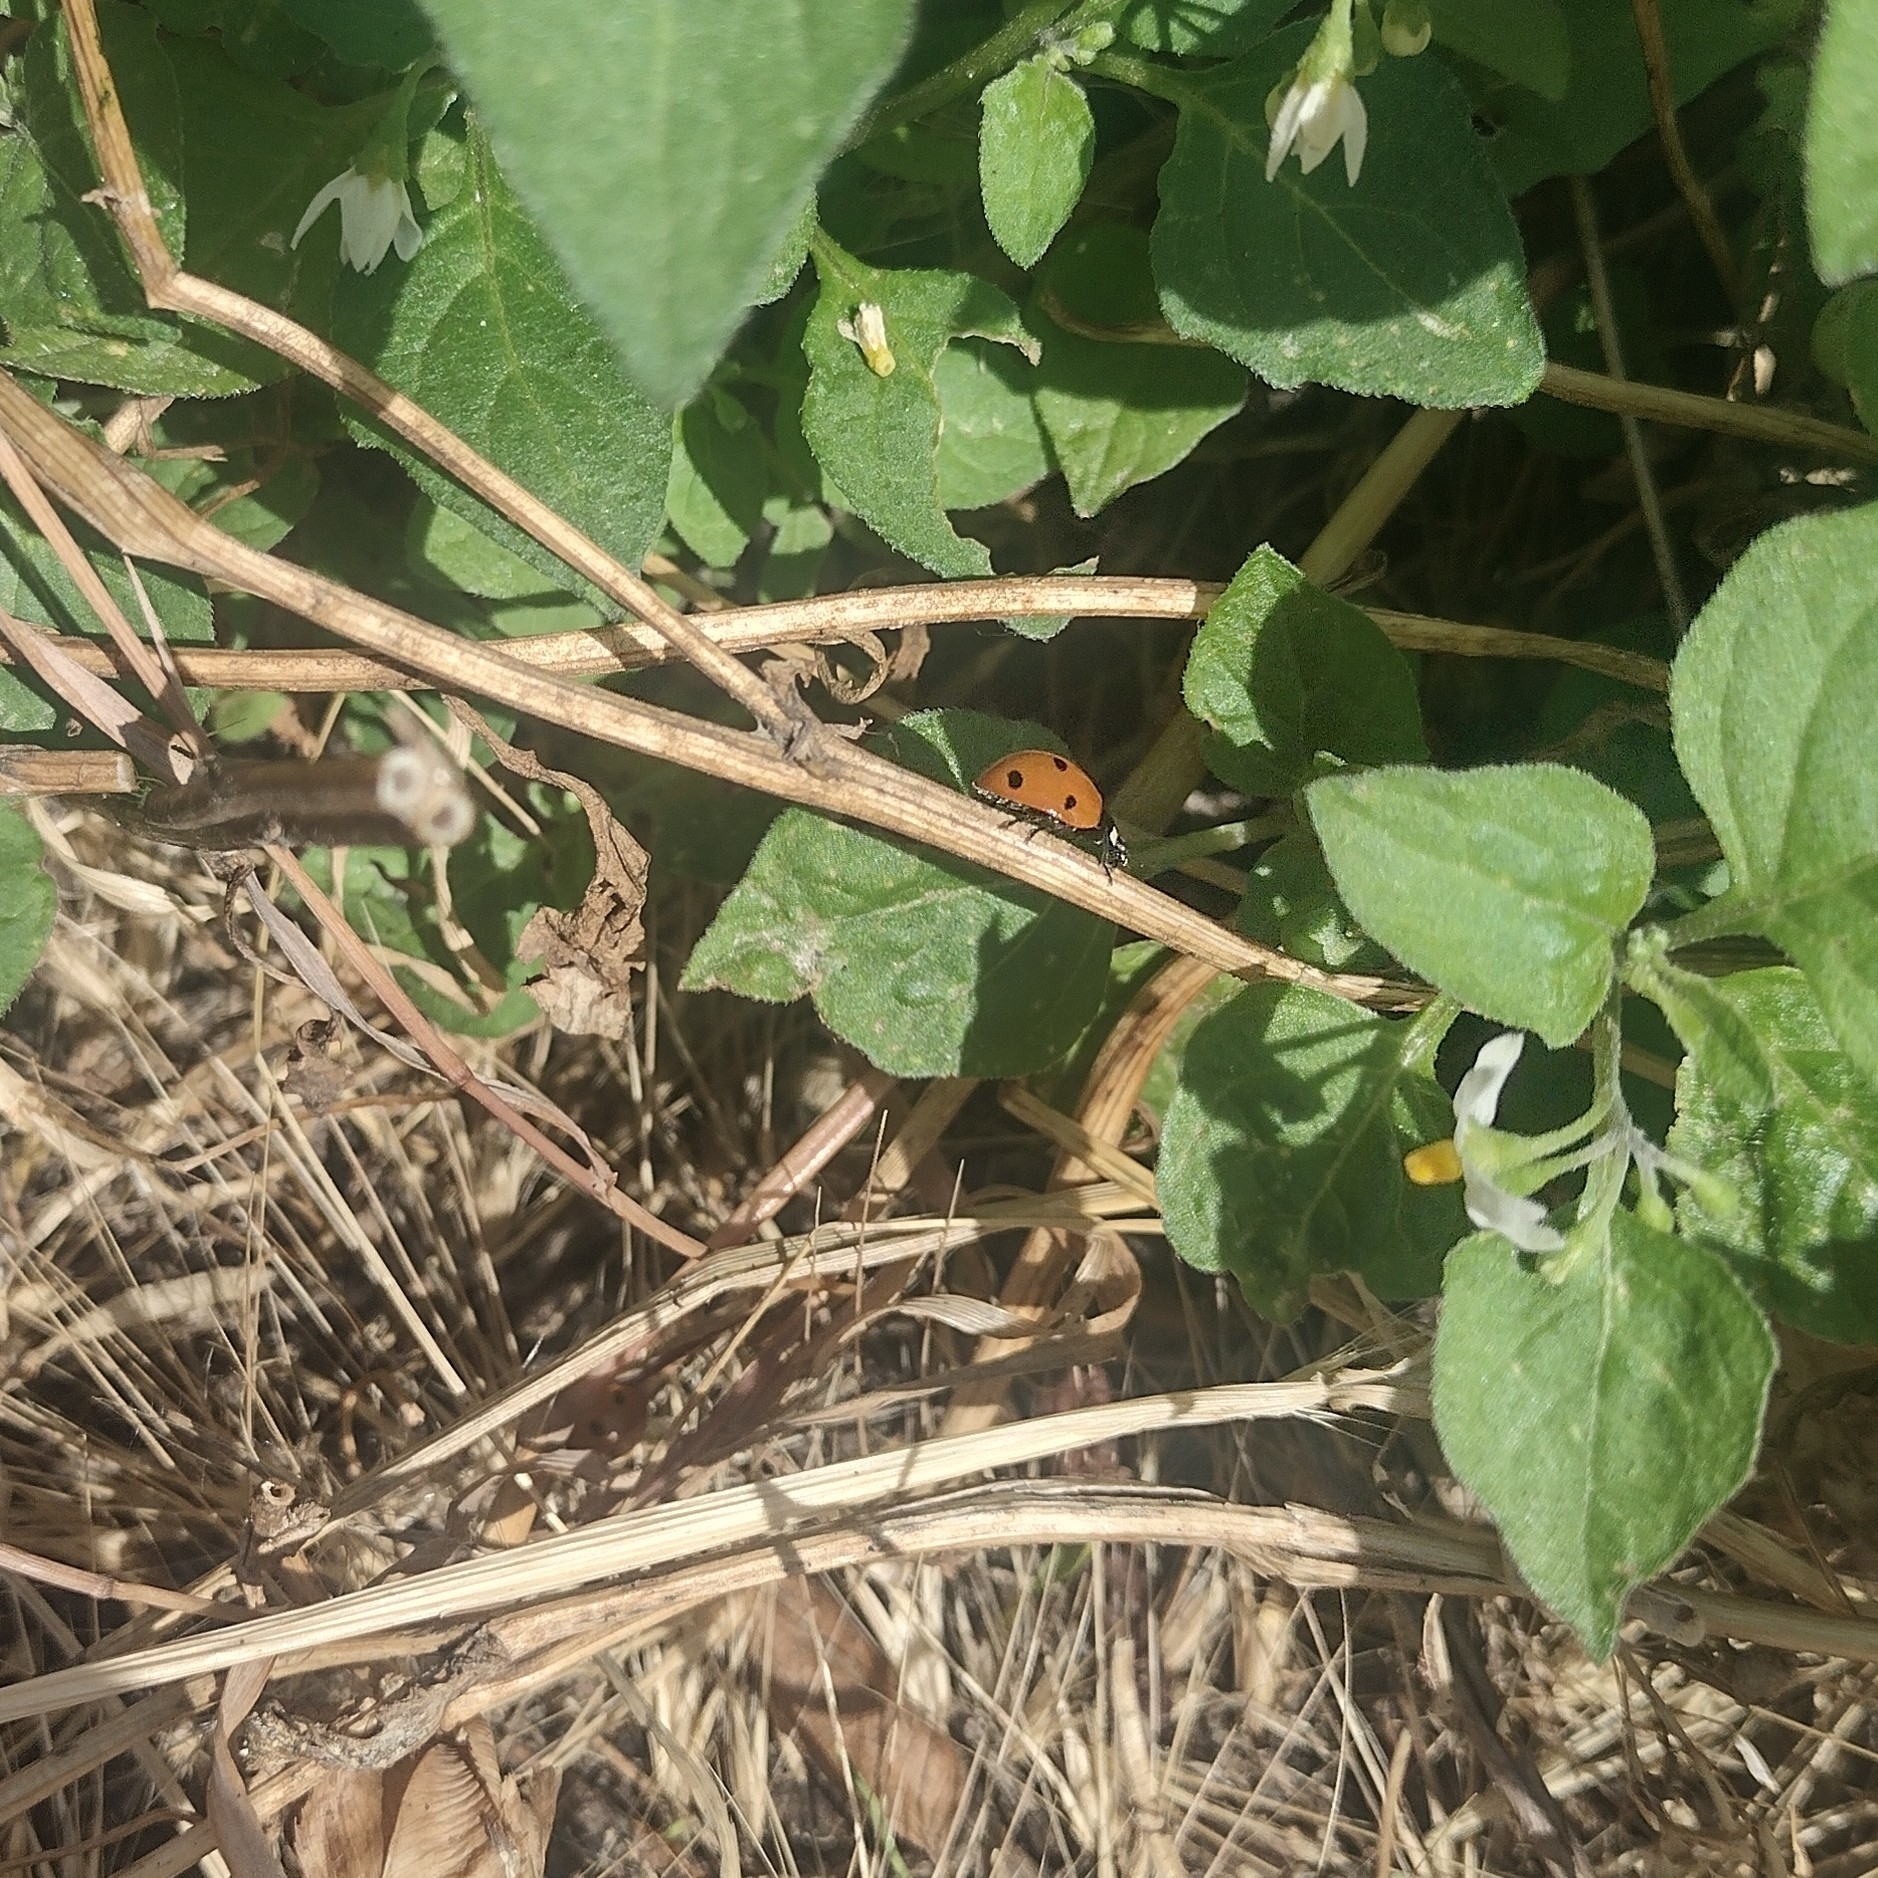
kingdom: Animalia
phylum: Arthropoda
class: Insecta
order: Coleoptera
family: Coccinellidae
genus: Coccinella
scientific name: Coccinella septempunctata
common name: Sevenspotted lady beetle
